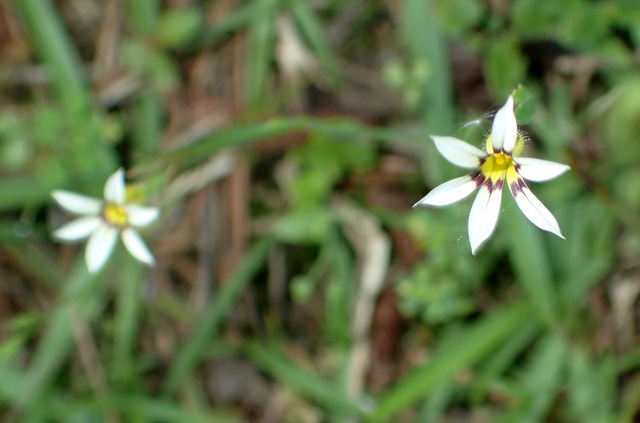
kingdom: Plantae
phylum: Tracheophyta
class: Liliopsida
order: Asparagales
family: Iridaceae
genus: Sisyrinchium
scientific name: Sisyrinchium micranthum
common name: Bermuda pigroot
